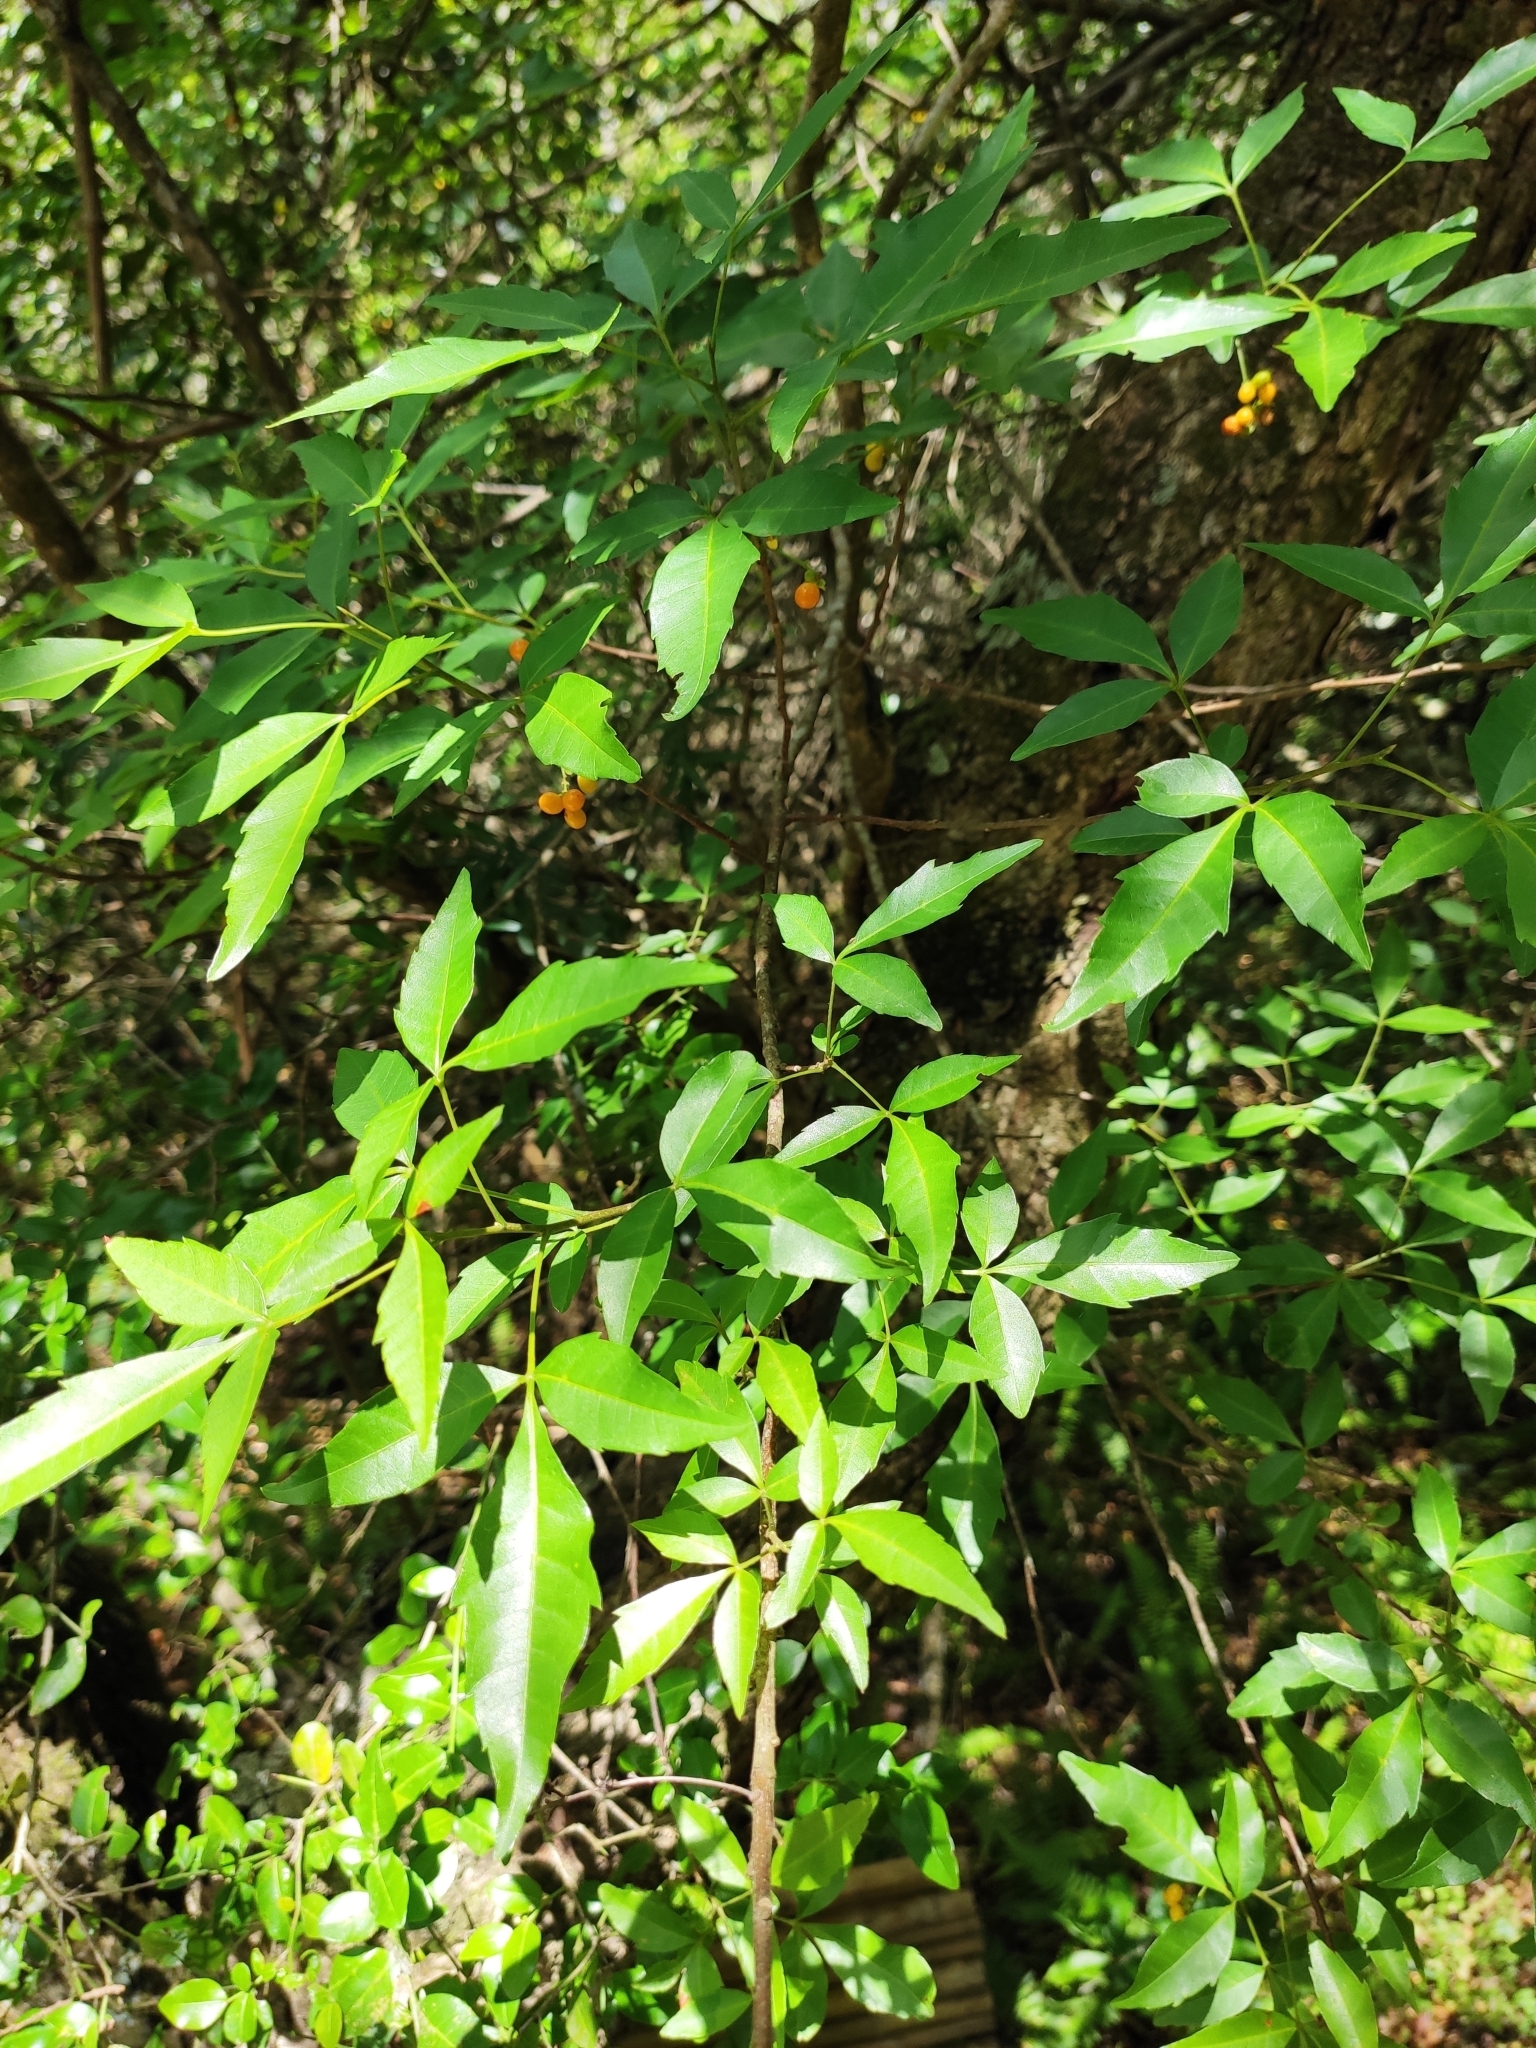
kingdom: Plantae
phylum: Tracheophyta
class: Magnoliopsida
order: Sapindales
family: Sapindaceae
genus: Allophylus
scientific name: Allophylus edulis
